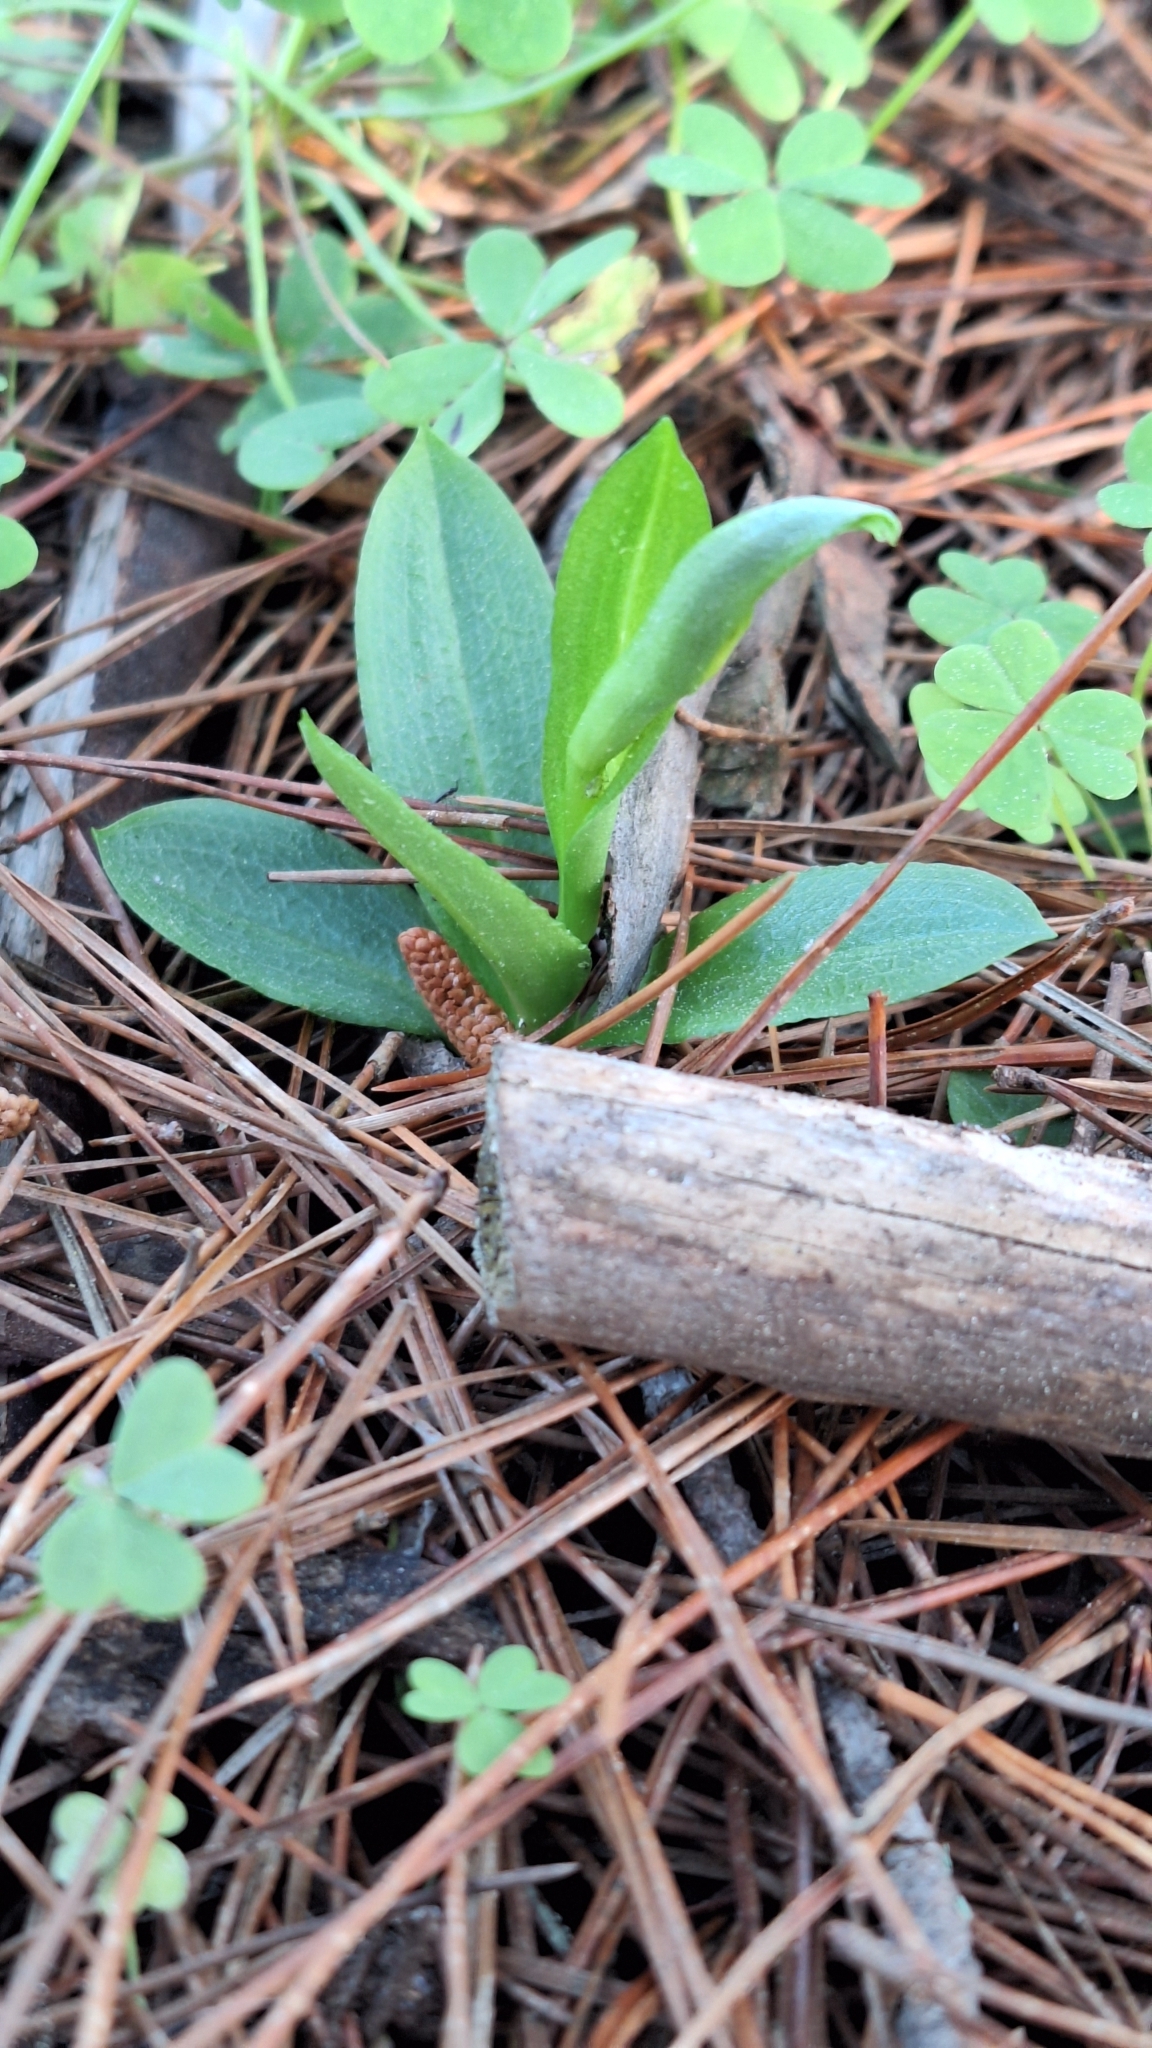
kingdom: Plantae
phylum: Tracheophyta
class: Liliopsida
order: Asparagales
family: Orchidaceae
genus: Pterostylis
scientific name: Pterostylis foliata
